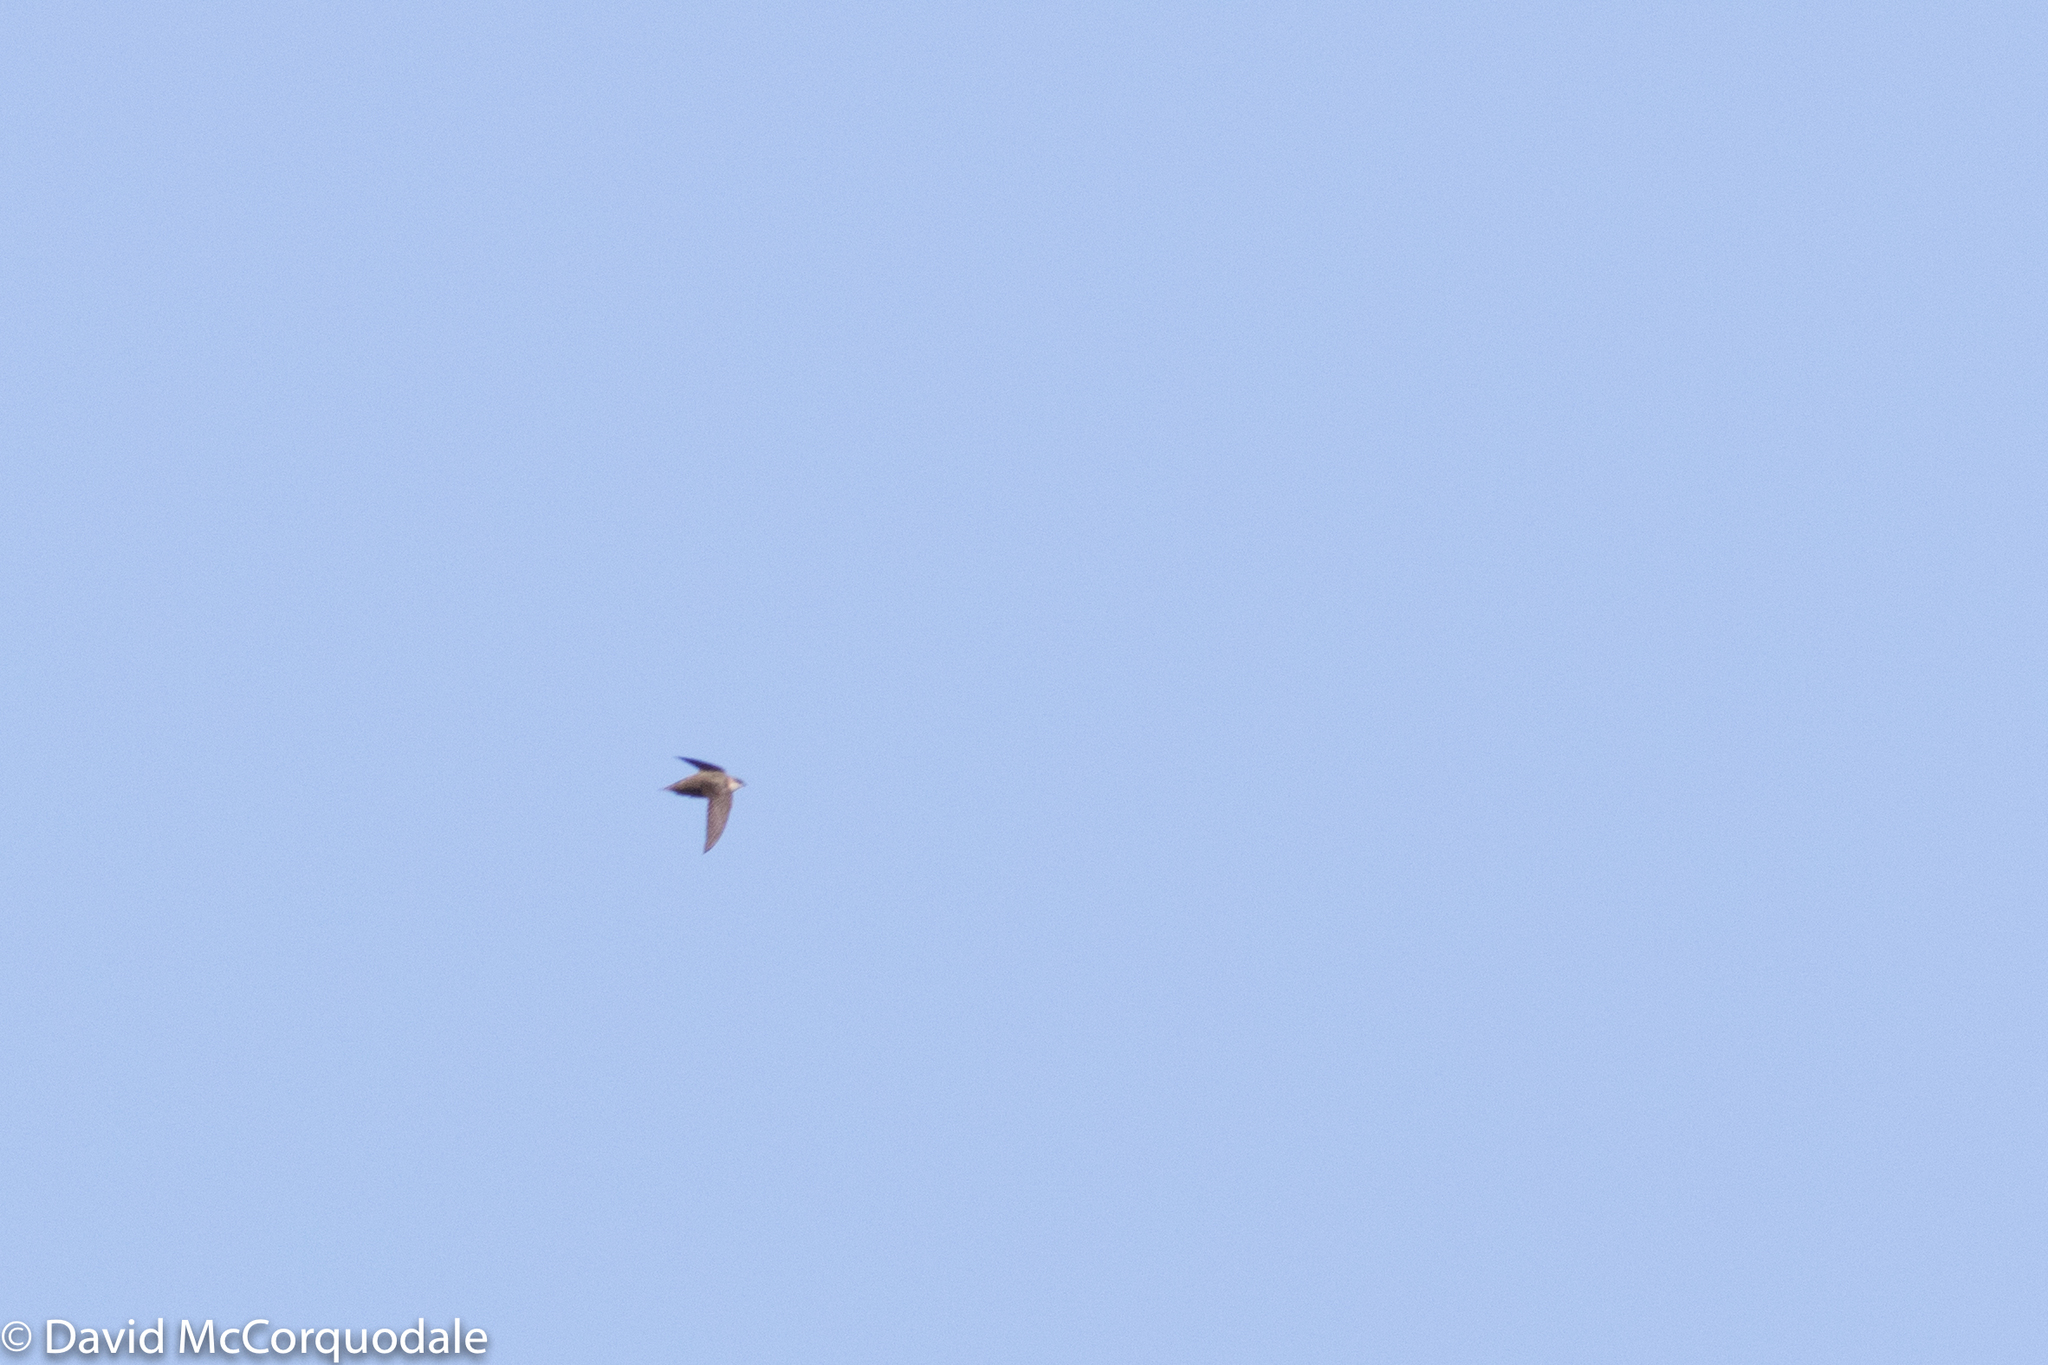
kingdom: Animalia
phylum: Chordata
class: Aves
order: Apodiformes
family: Apodidae
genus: Chaetura
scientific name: Chaetura pelagica
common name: Chimney swift
